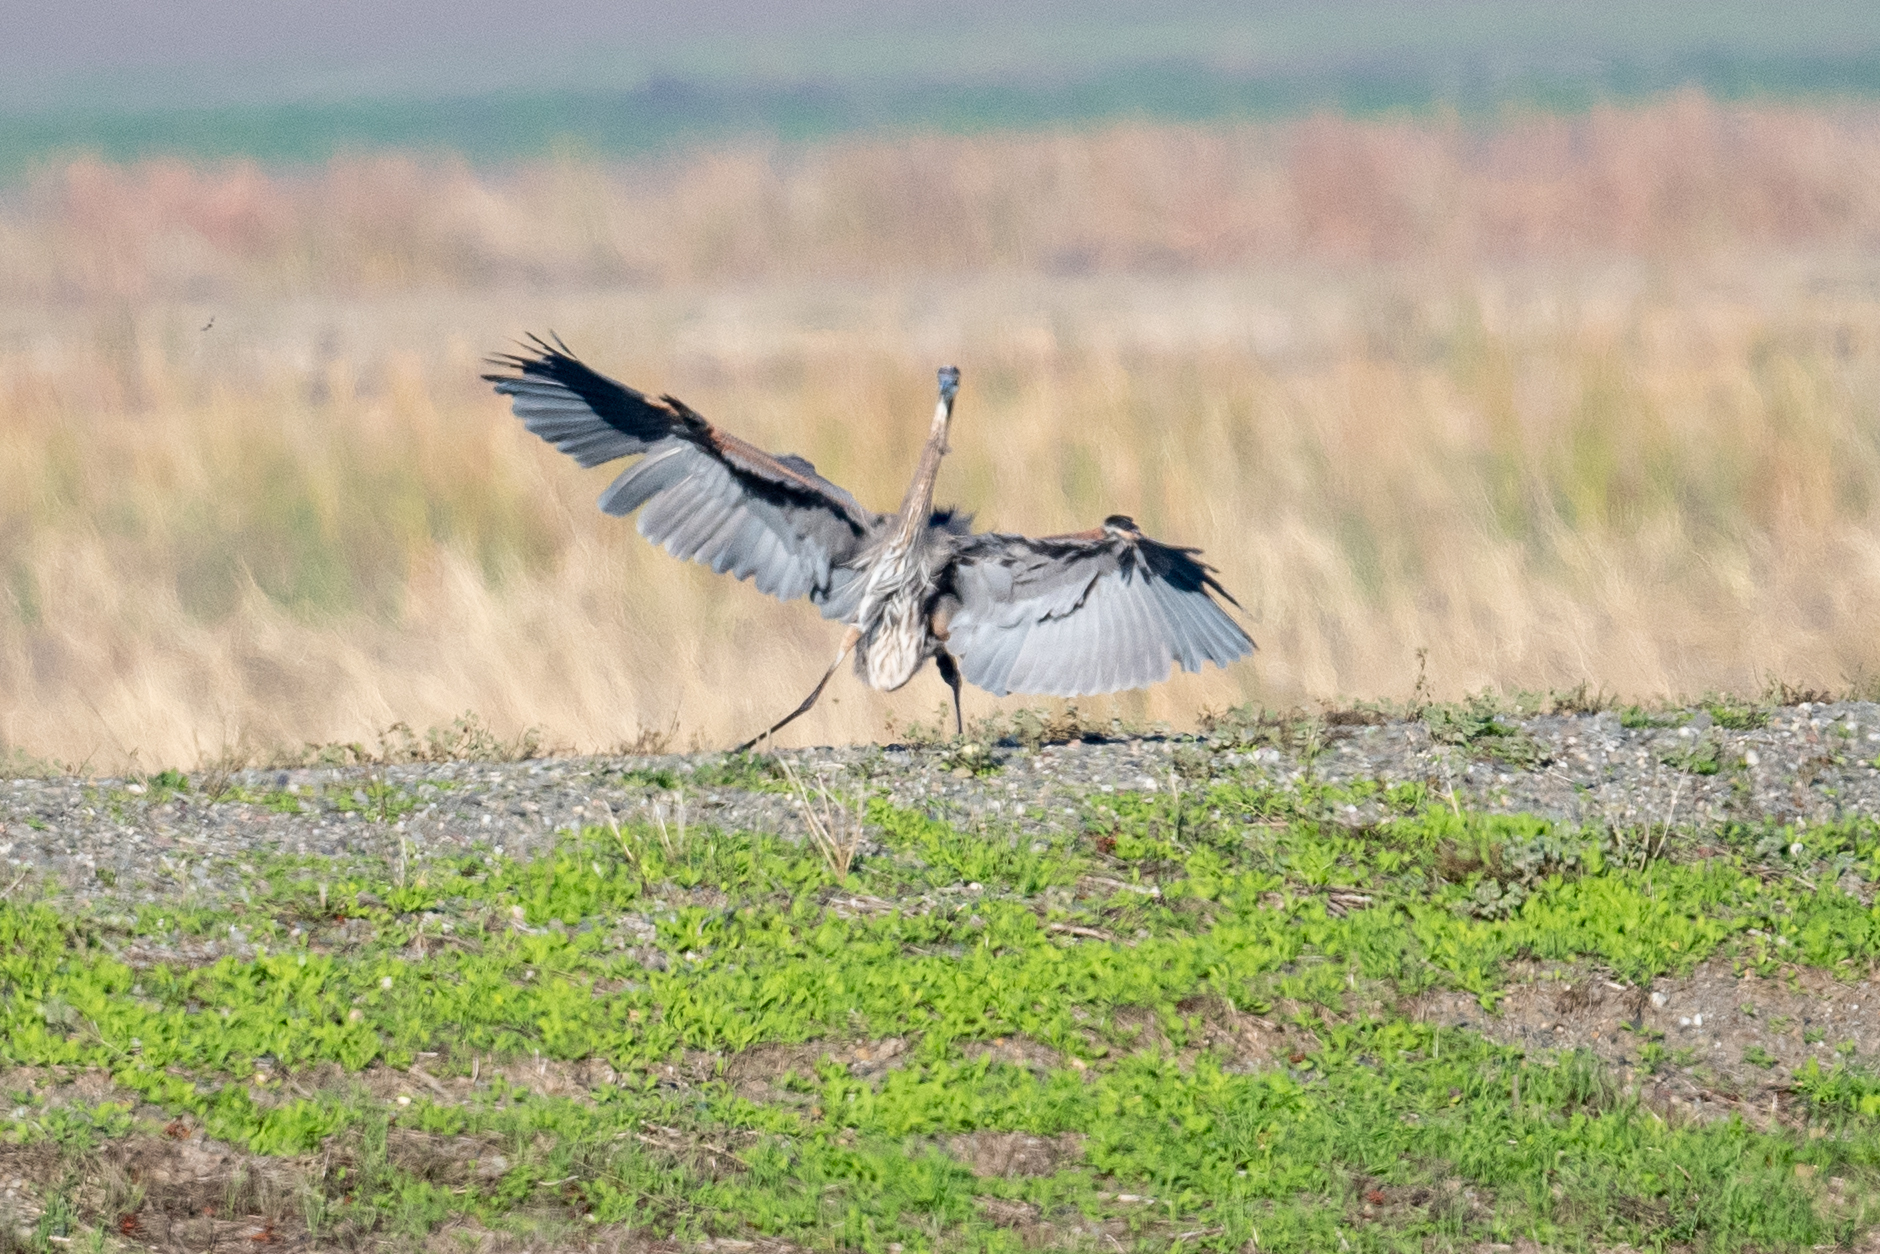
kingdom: Animalia
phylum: Chordata
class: Aves
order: Pelecaniformes
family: Ardeidae
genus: Ardea
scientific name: Ardea herodias
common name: Great blue heron
